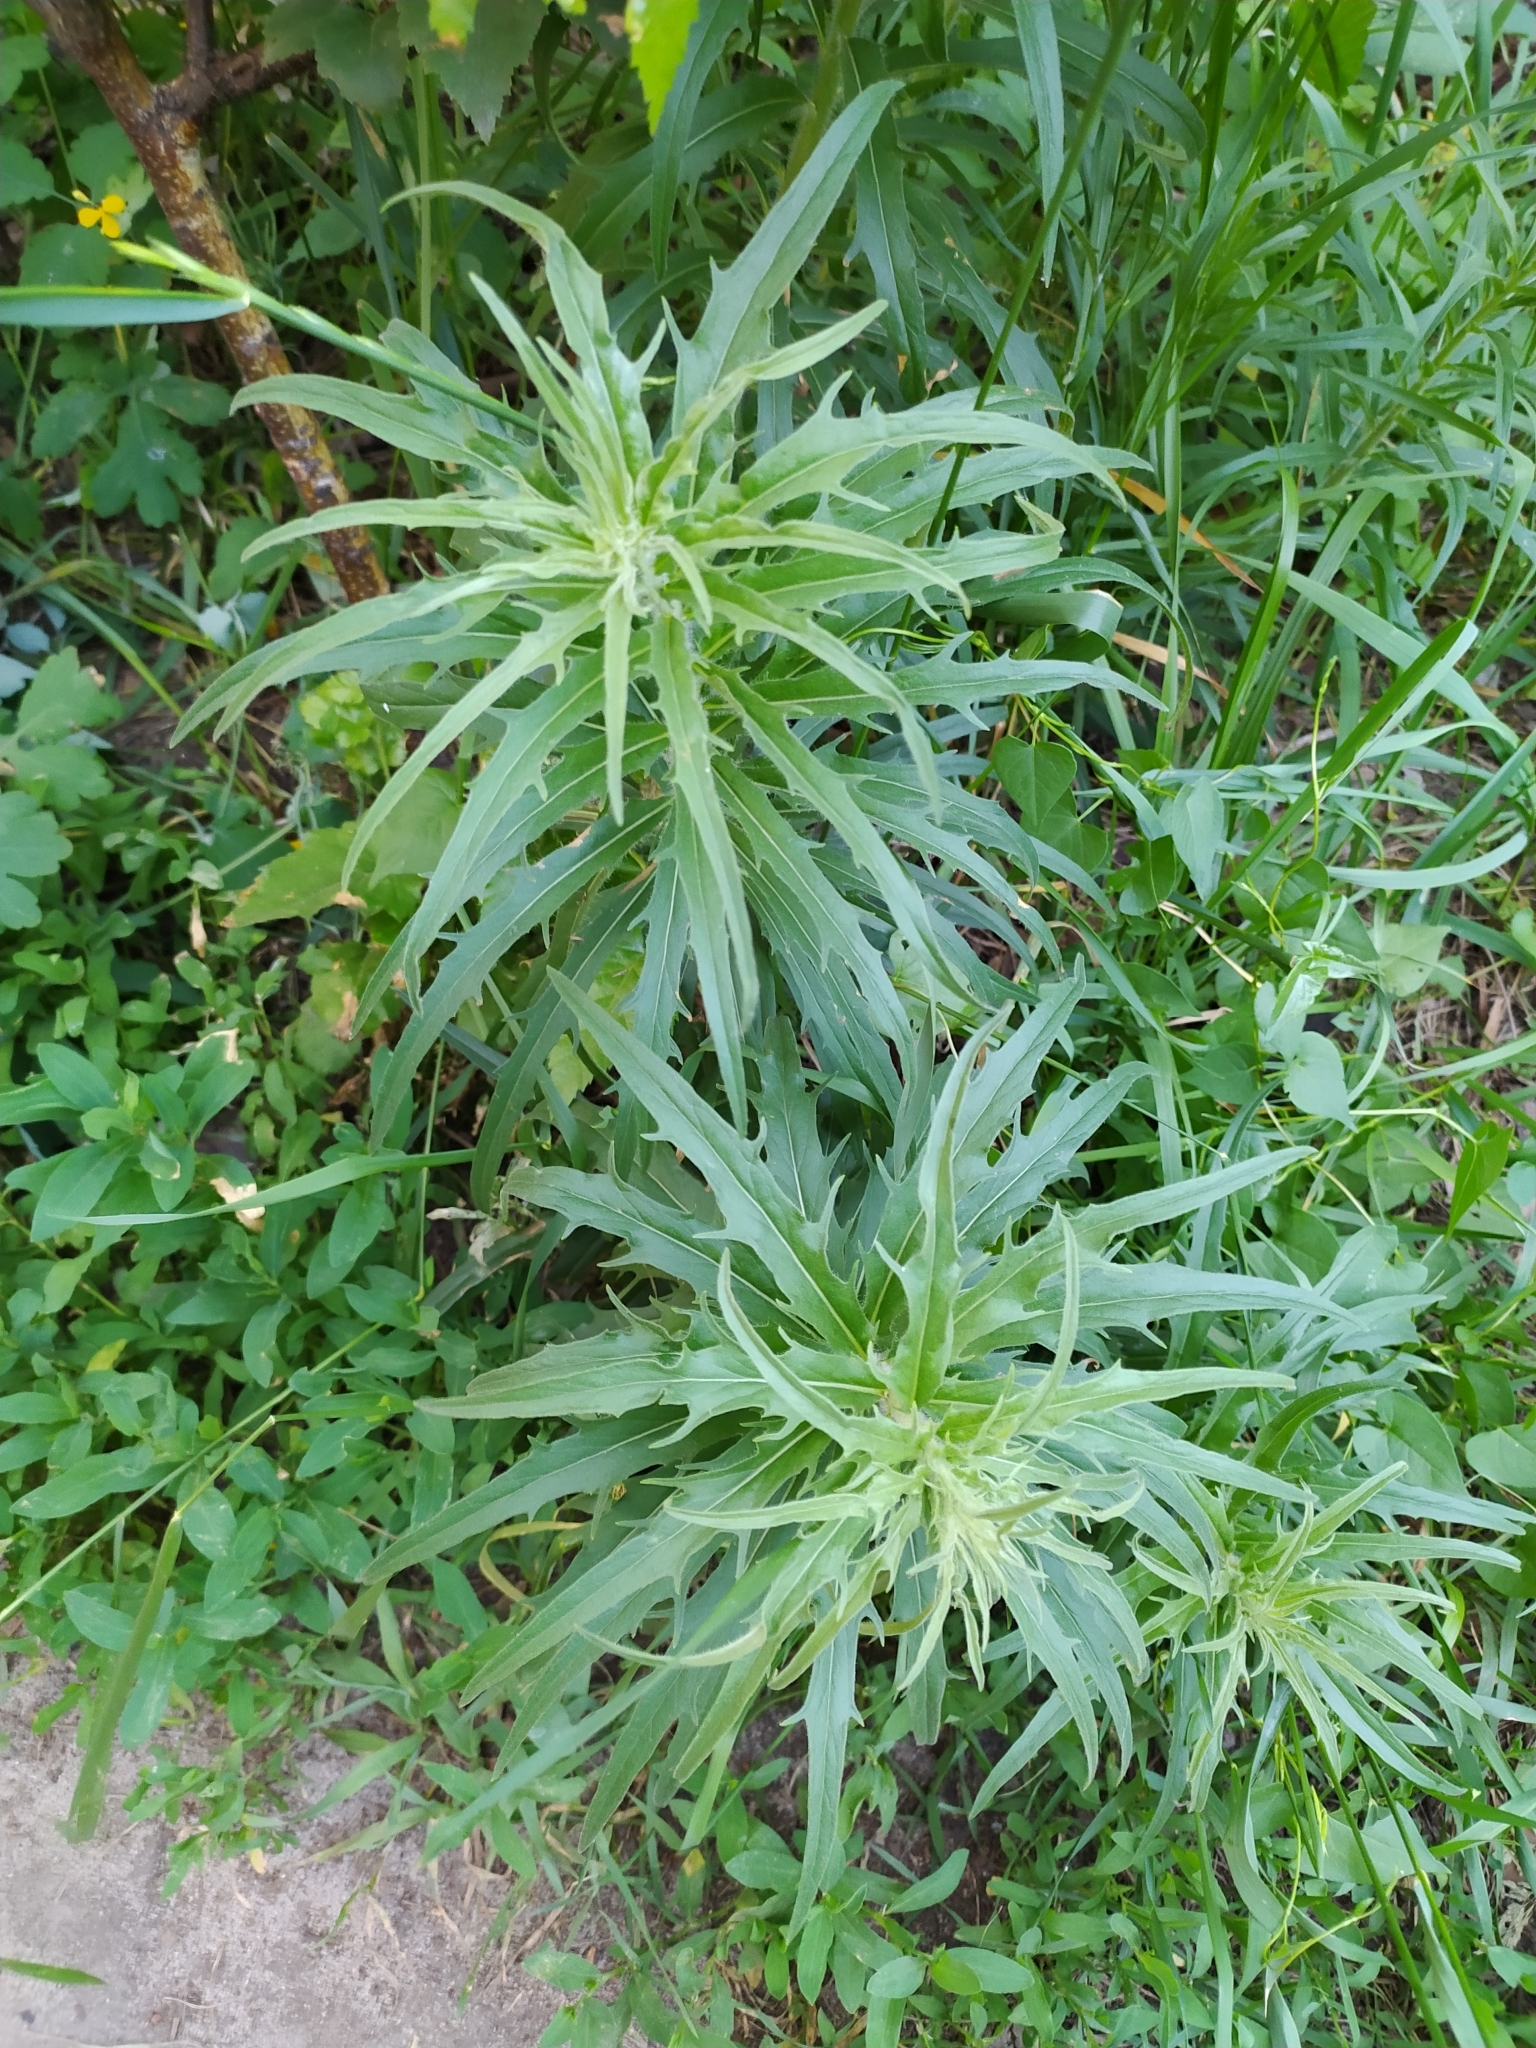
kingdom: Plantae
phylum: Tracheophyta
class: Magnoliopsida
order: Asterales
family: Asteraceae
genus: Hieracium
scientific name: Hieracium umbellatum
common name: Northern hawkweed
